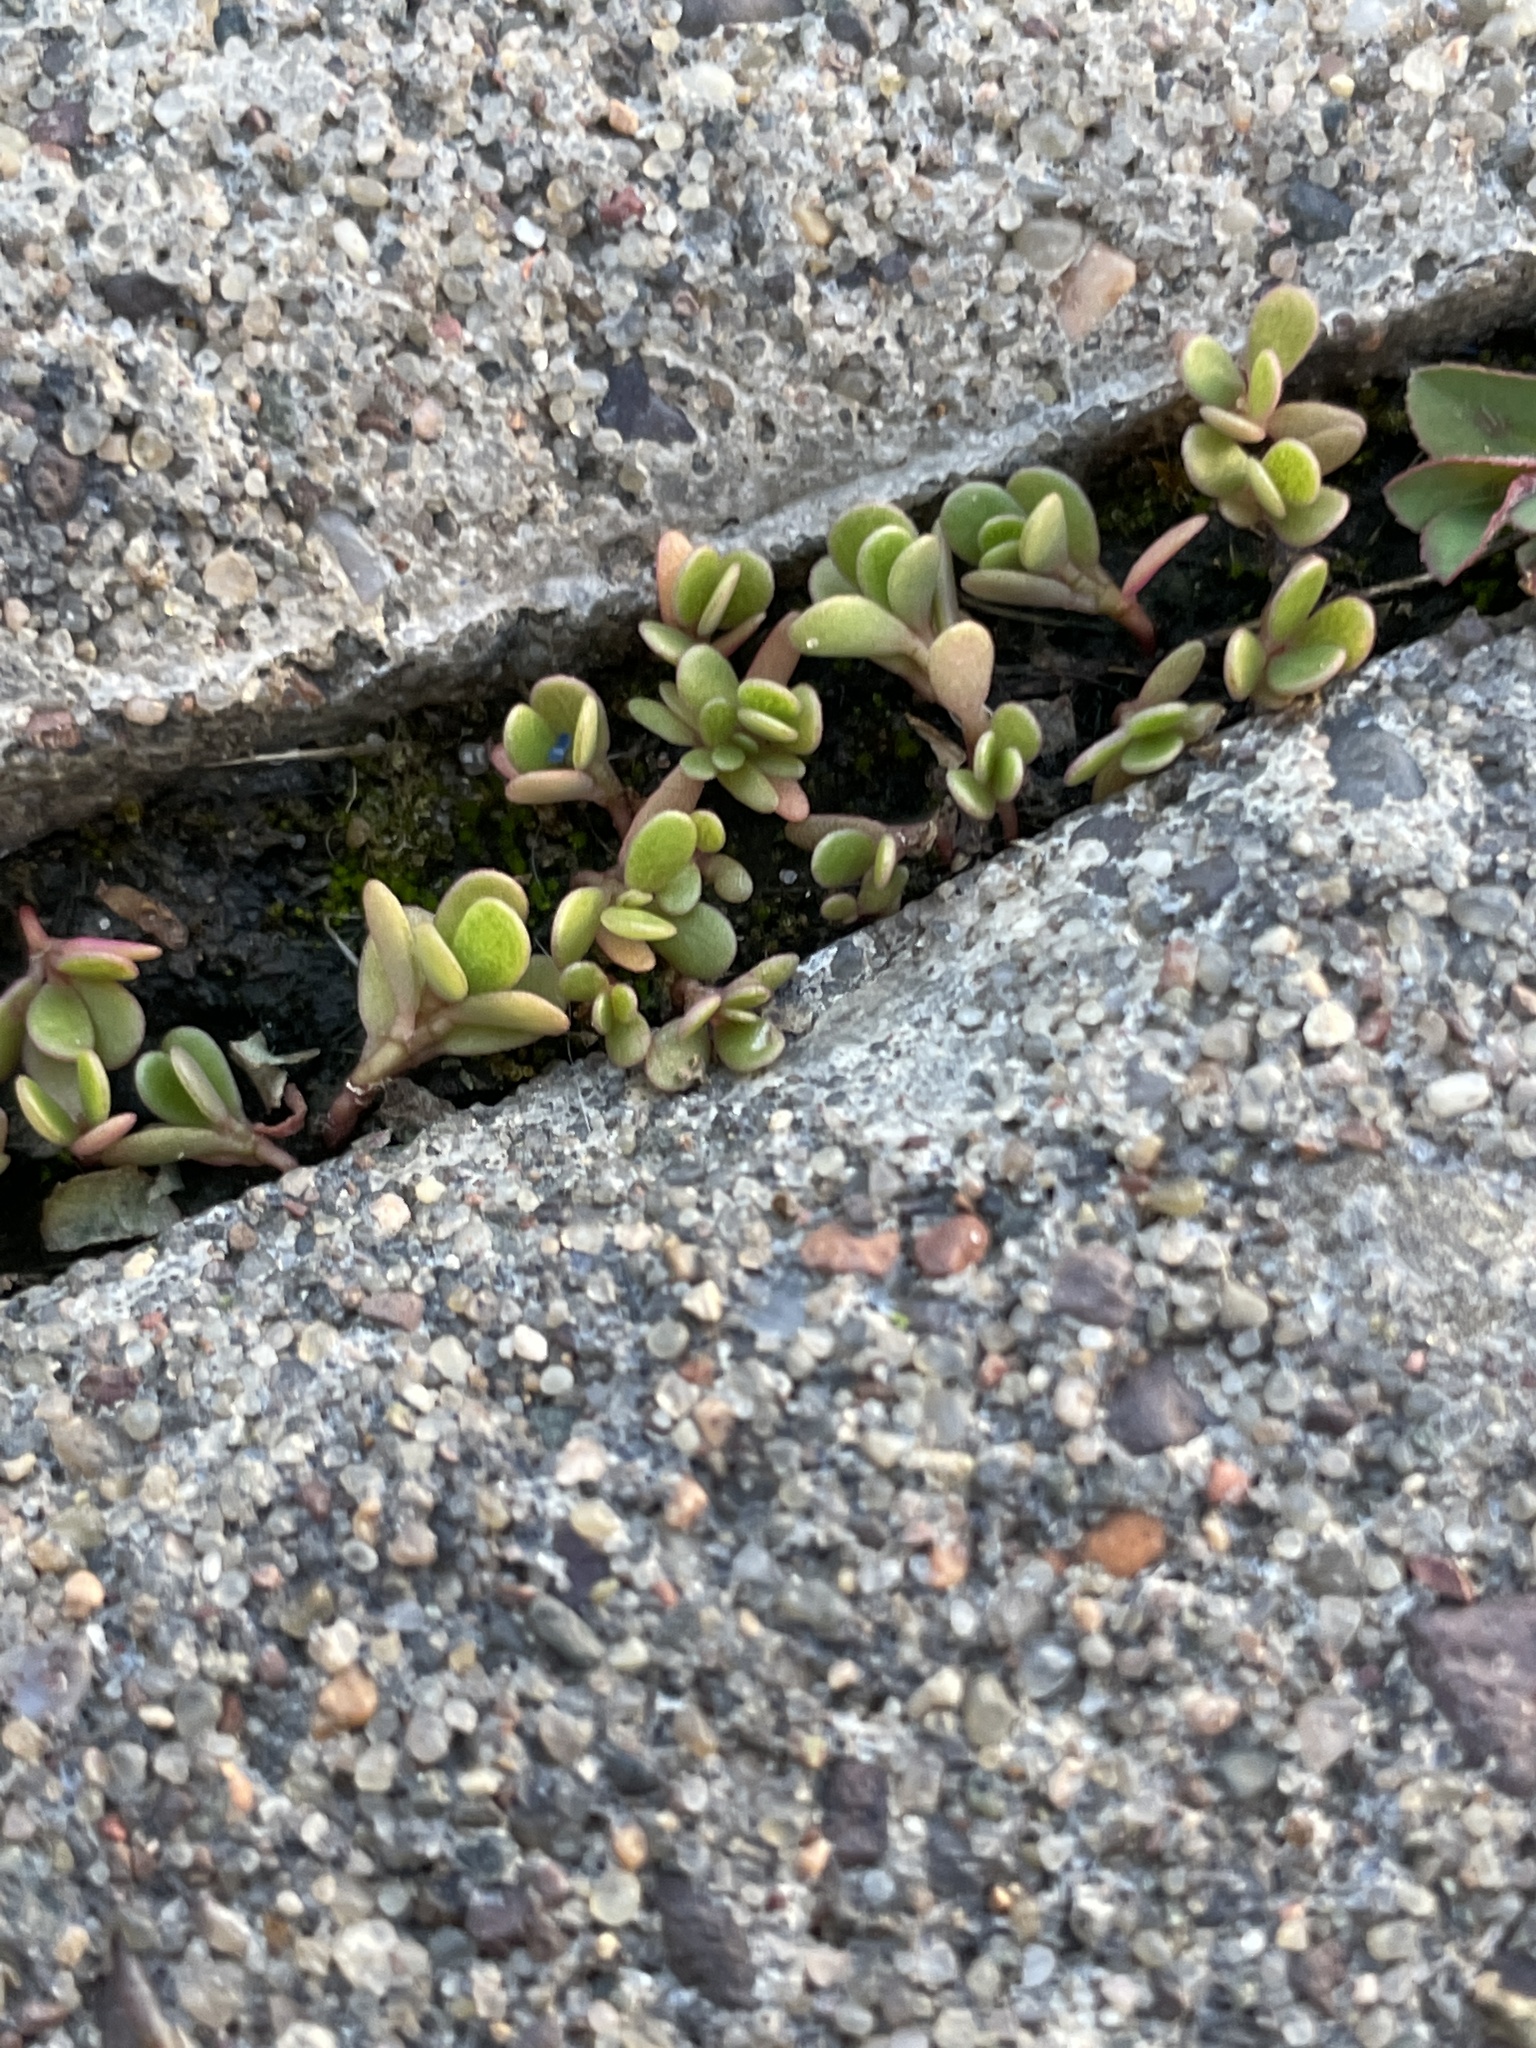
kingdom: Plantae
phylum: Tracheophyta
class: Magnoliopsida
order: Caryophyllales
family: Portulacaceae
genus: Portulaca
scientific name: Portulaca oleracea
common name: Common purslane
